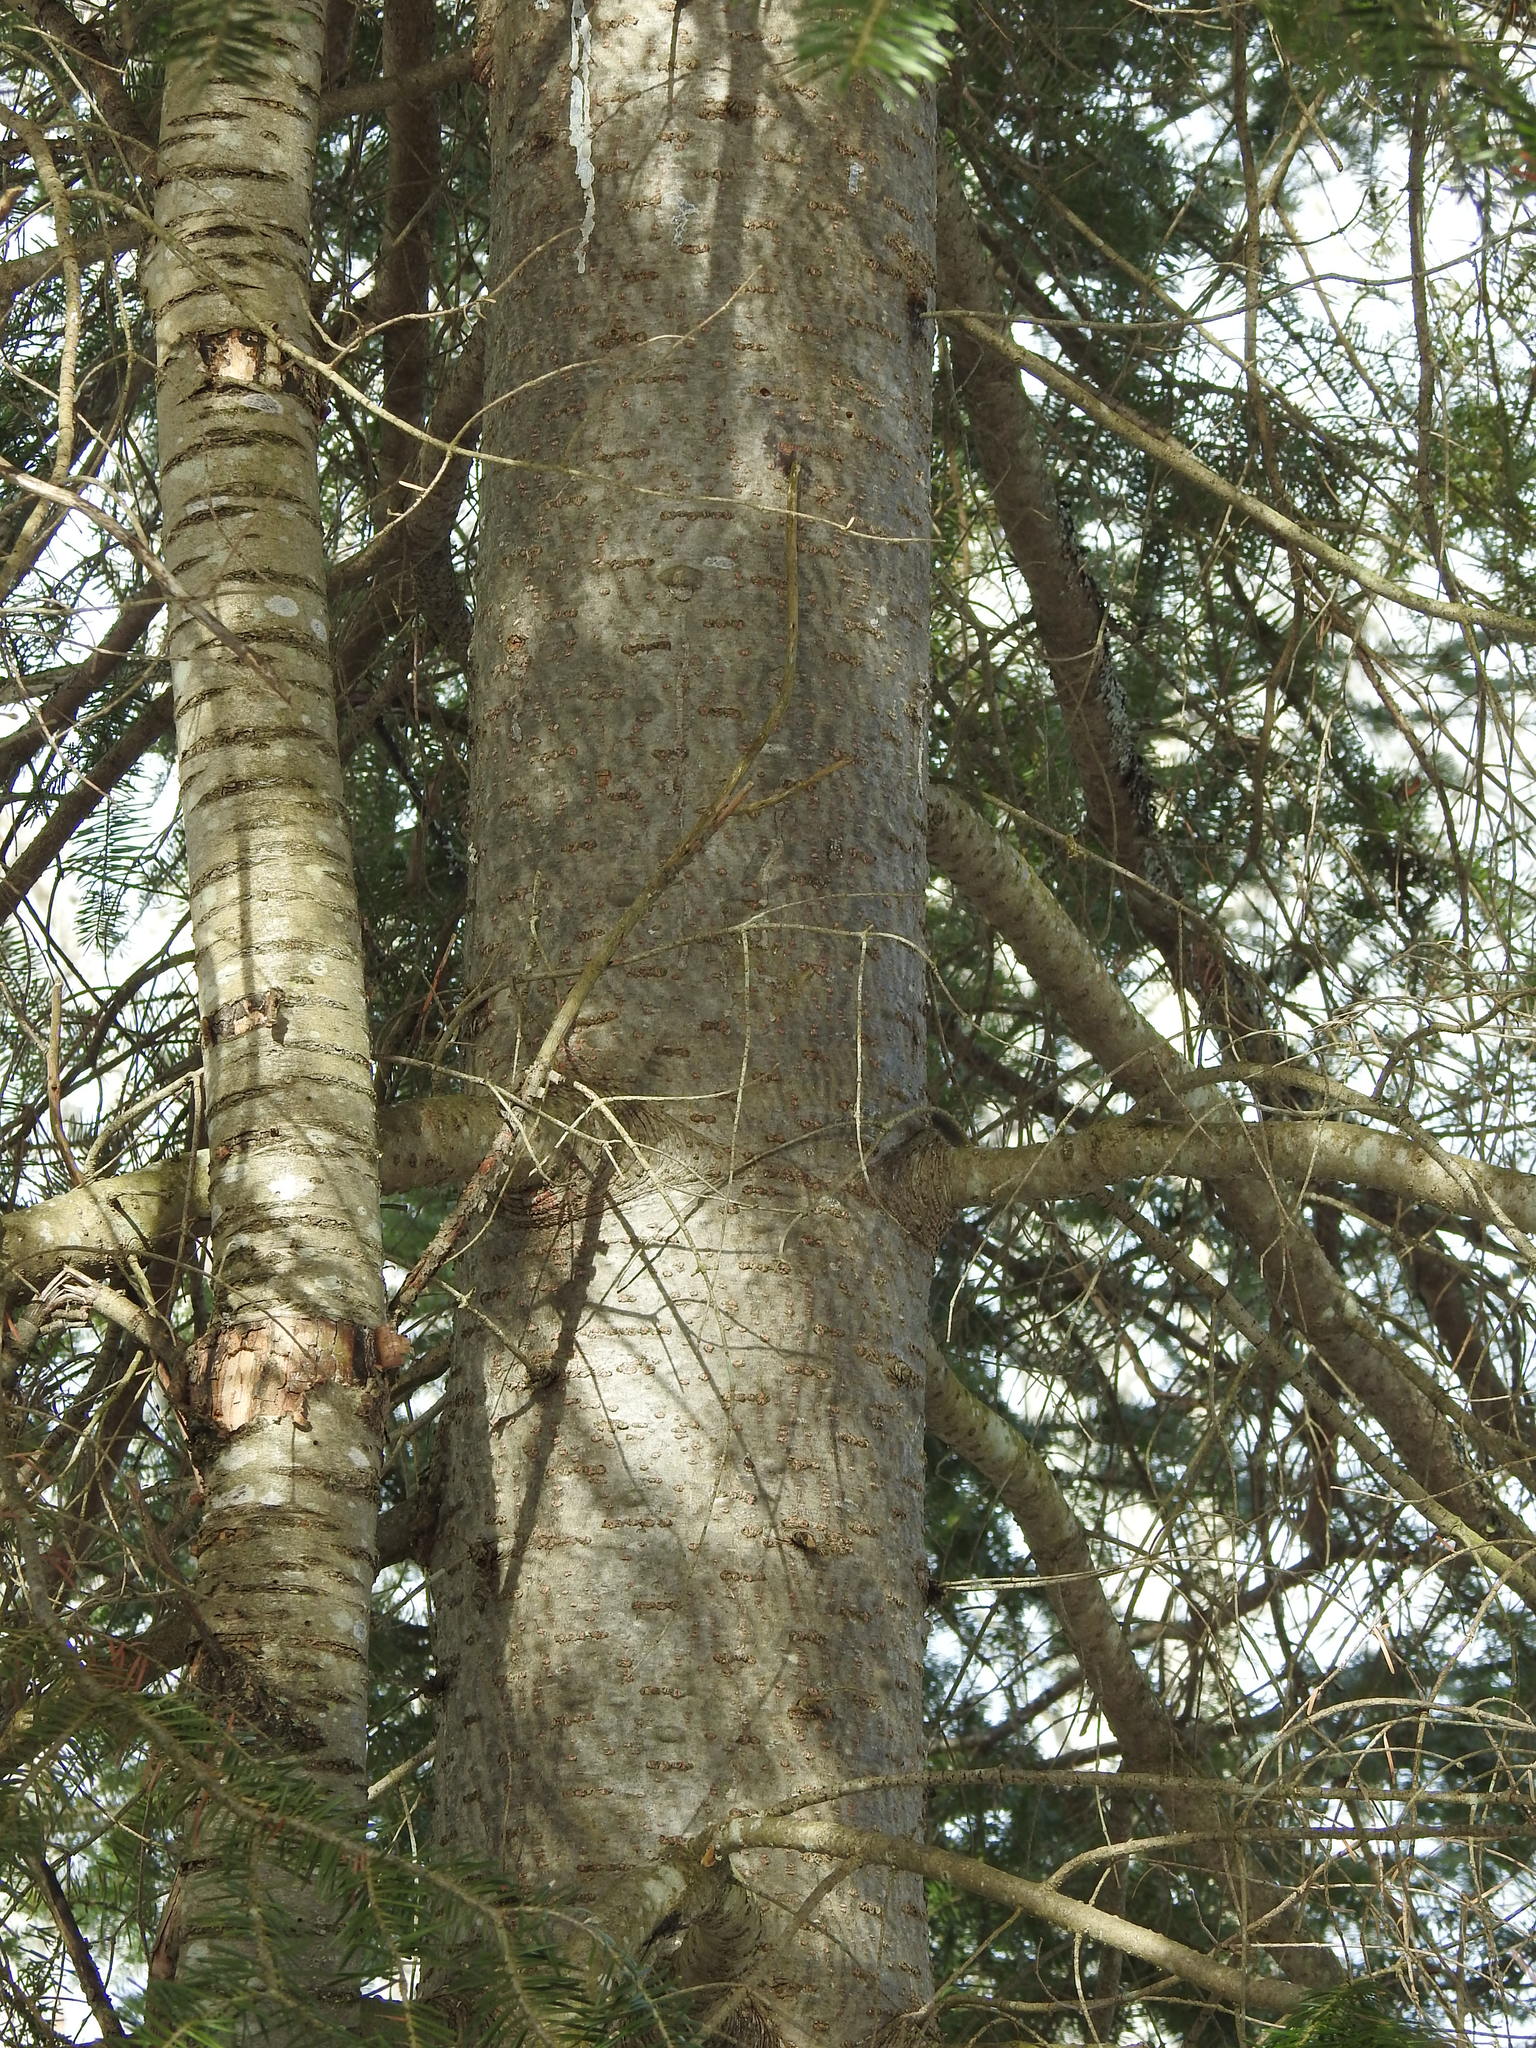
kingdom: Plantae
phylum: Tracheophyta
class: Pinopsida
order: Pinales
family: Pinaceae
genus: Abies
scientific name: Abies balsamea
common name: Balsam fir
